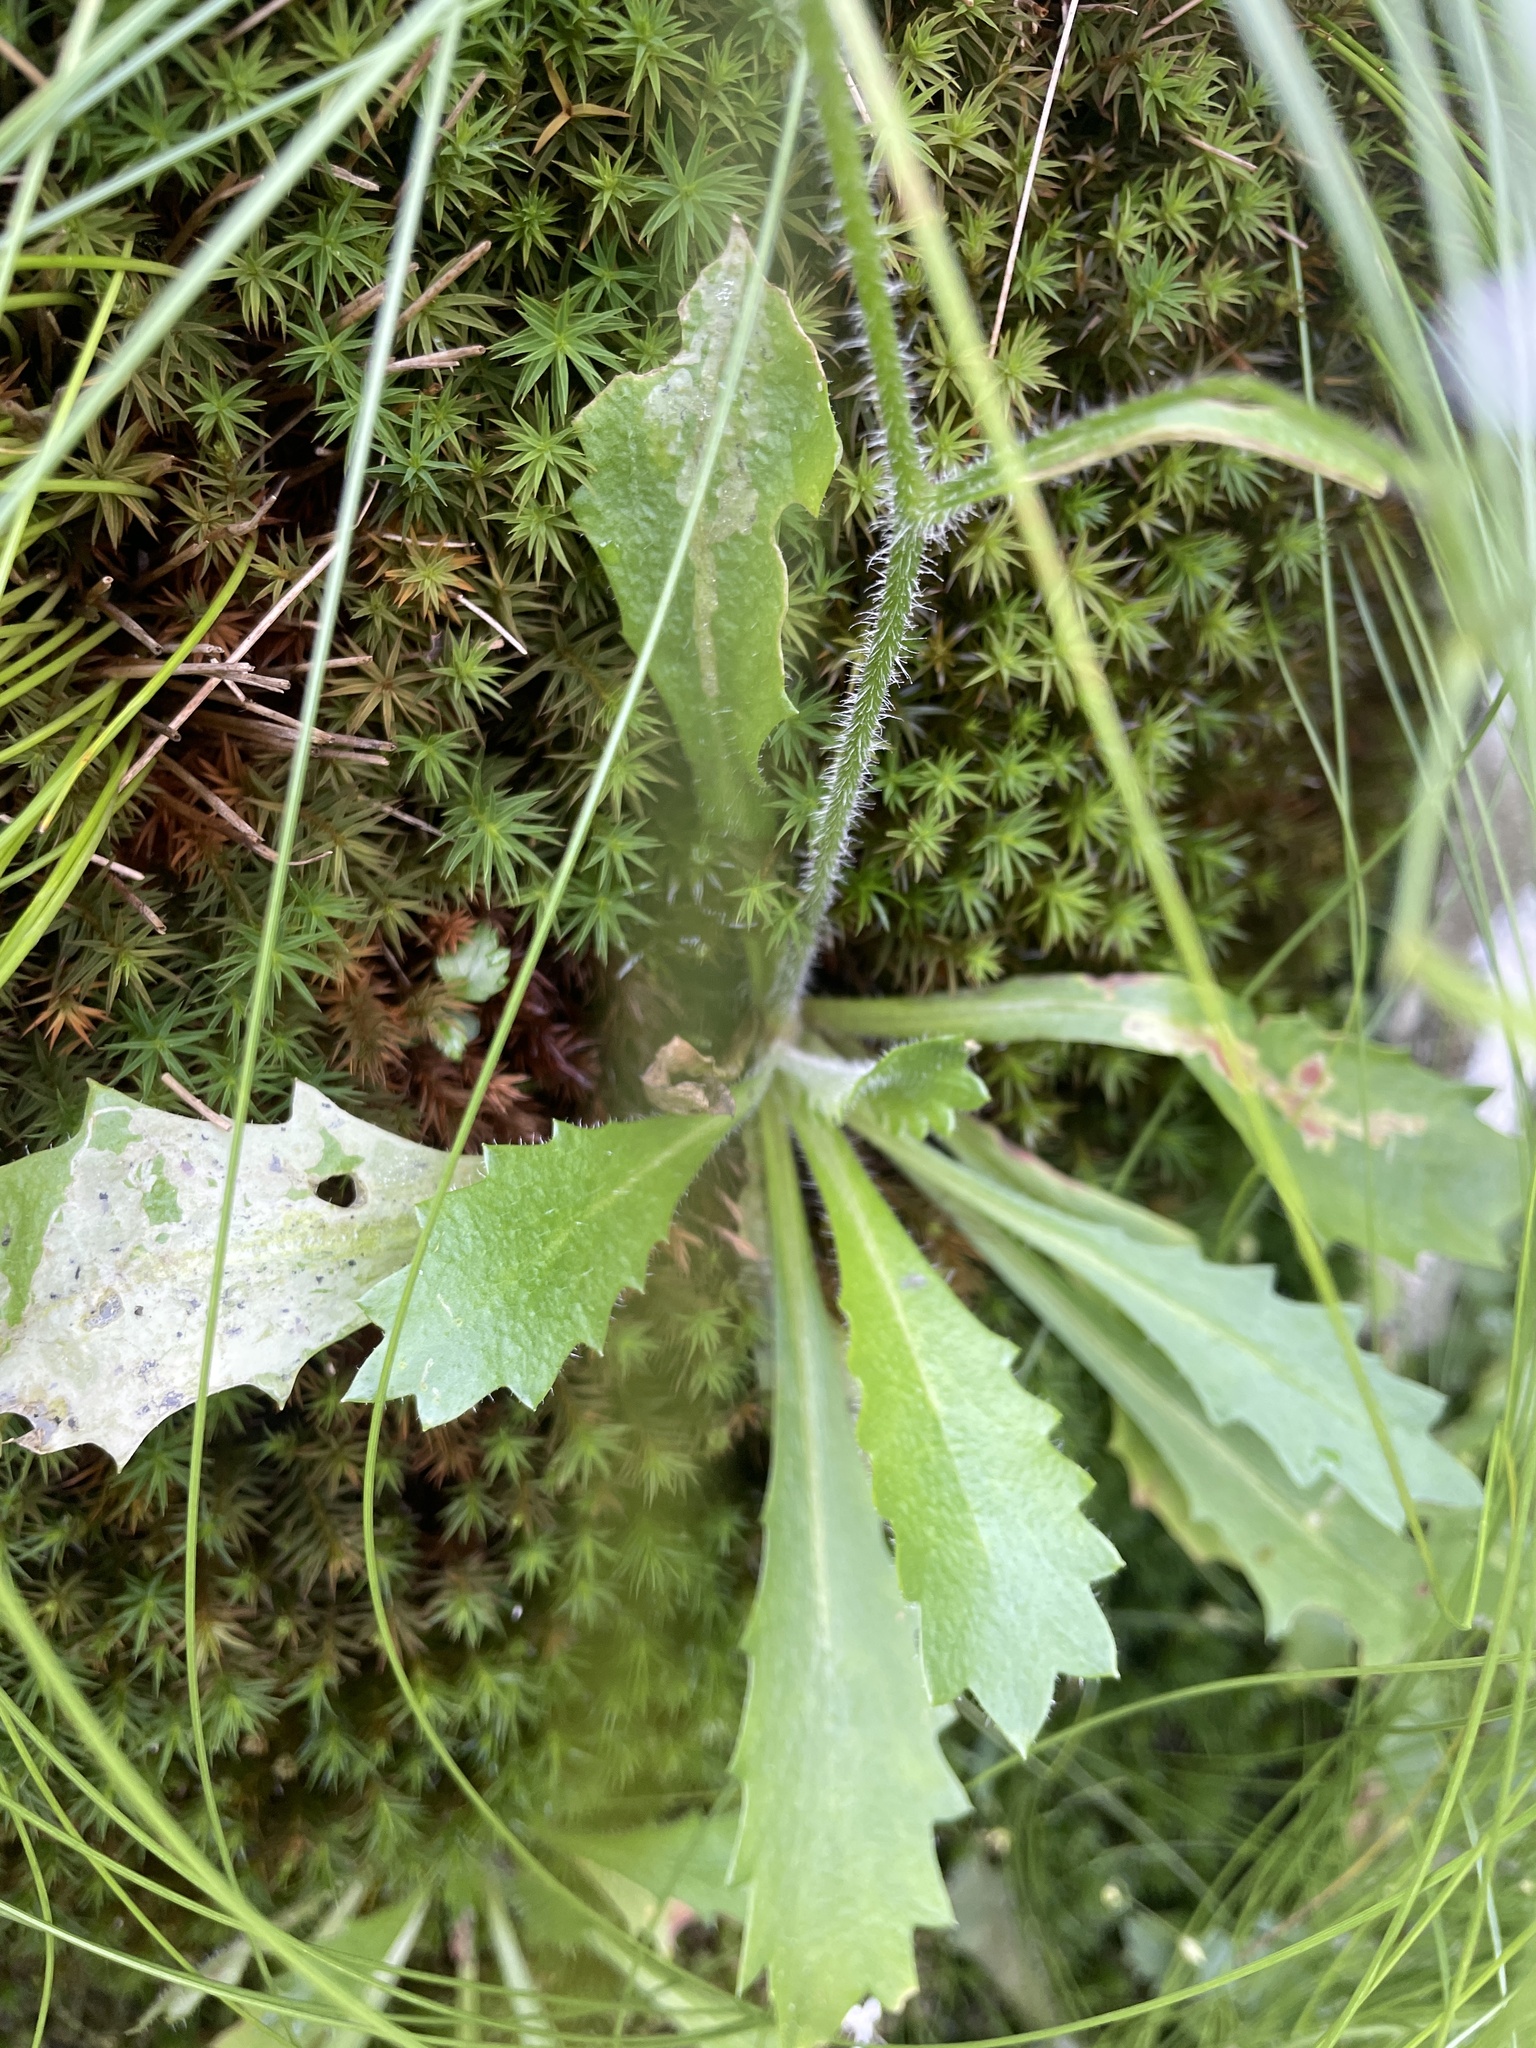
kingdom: Plantae
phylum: Tracheophyta
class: Magnoliopsida
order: Saxifragales
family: Saxifragaceae
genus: Micranthes
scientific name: Micranthes petiolaris
